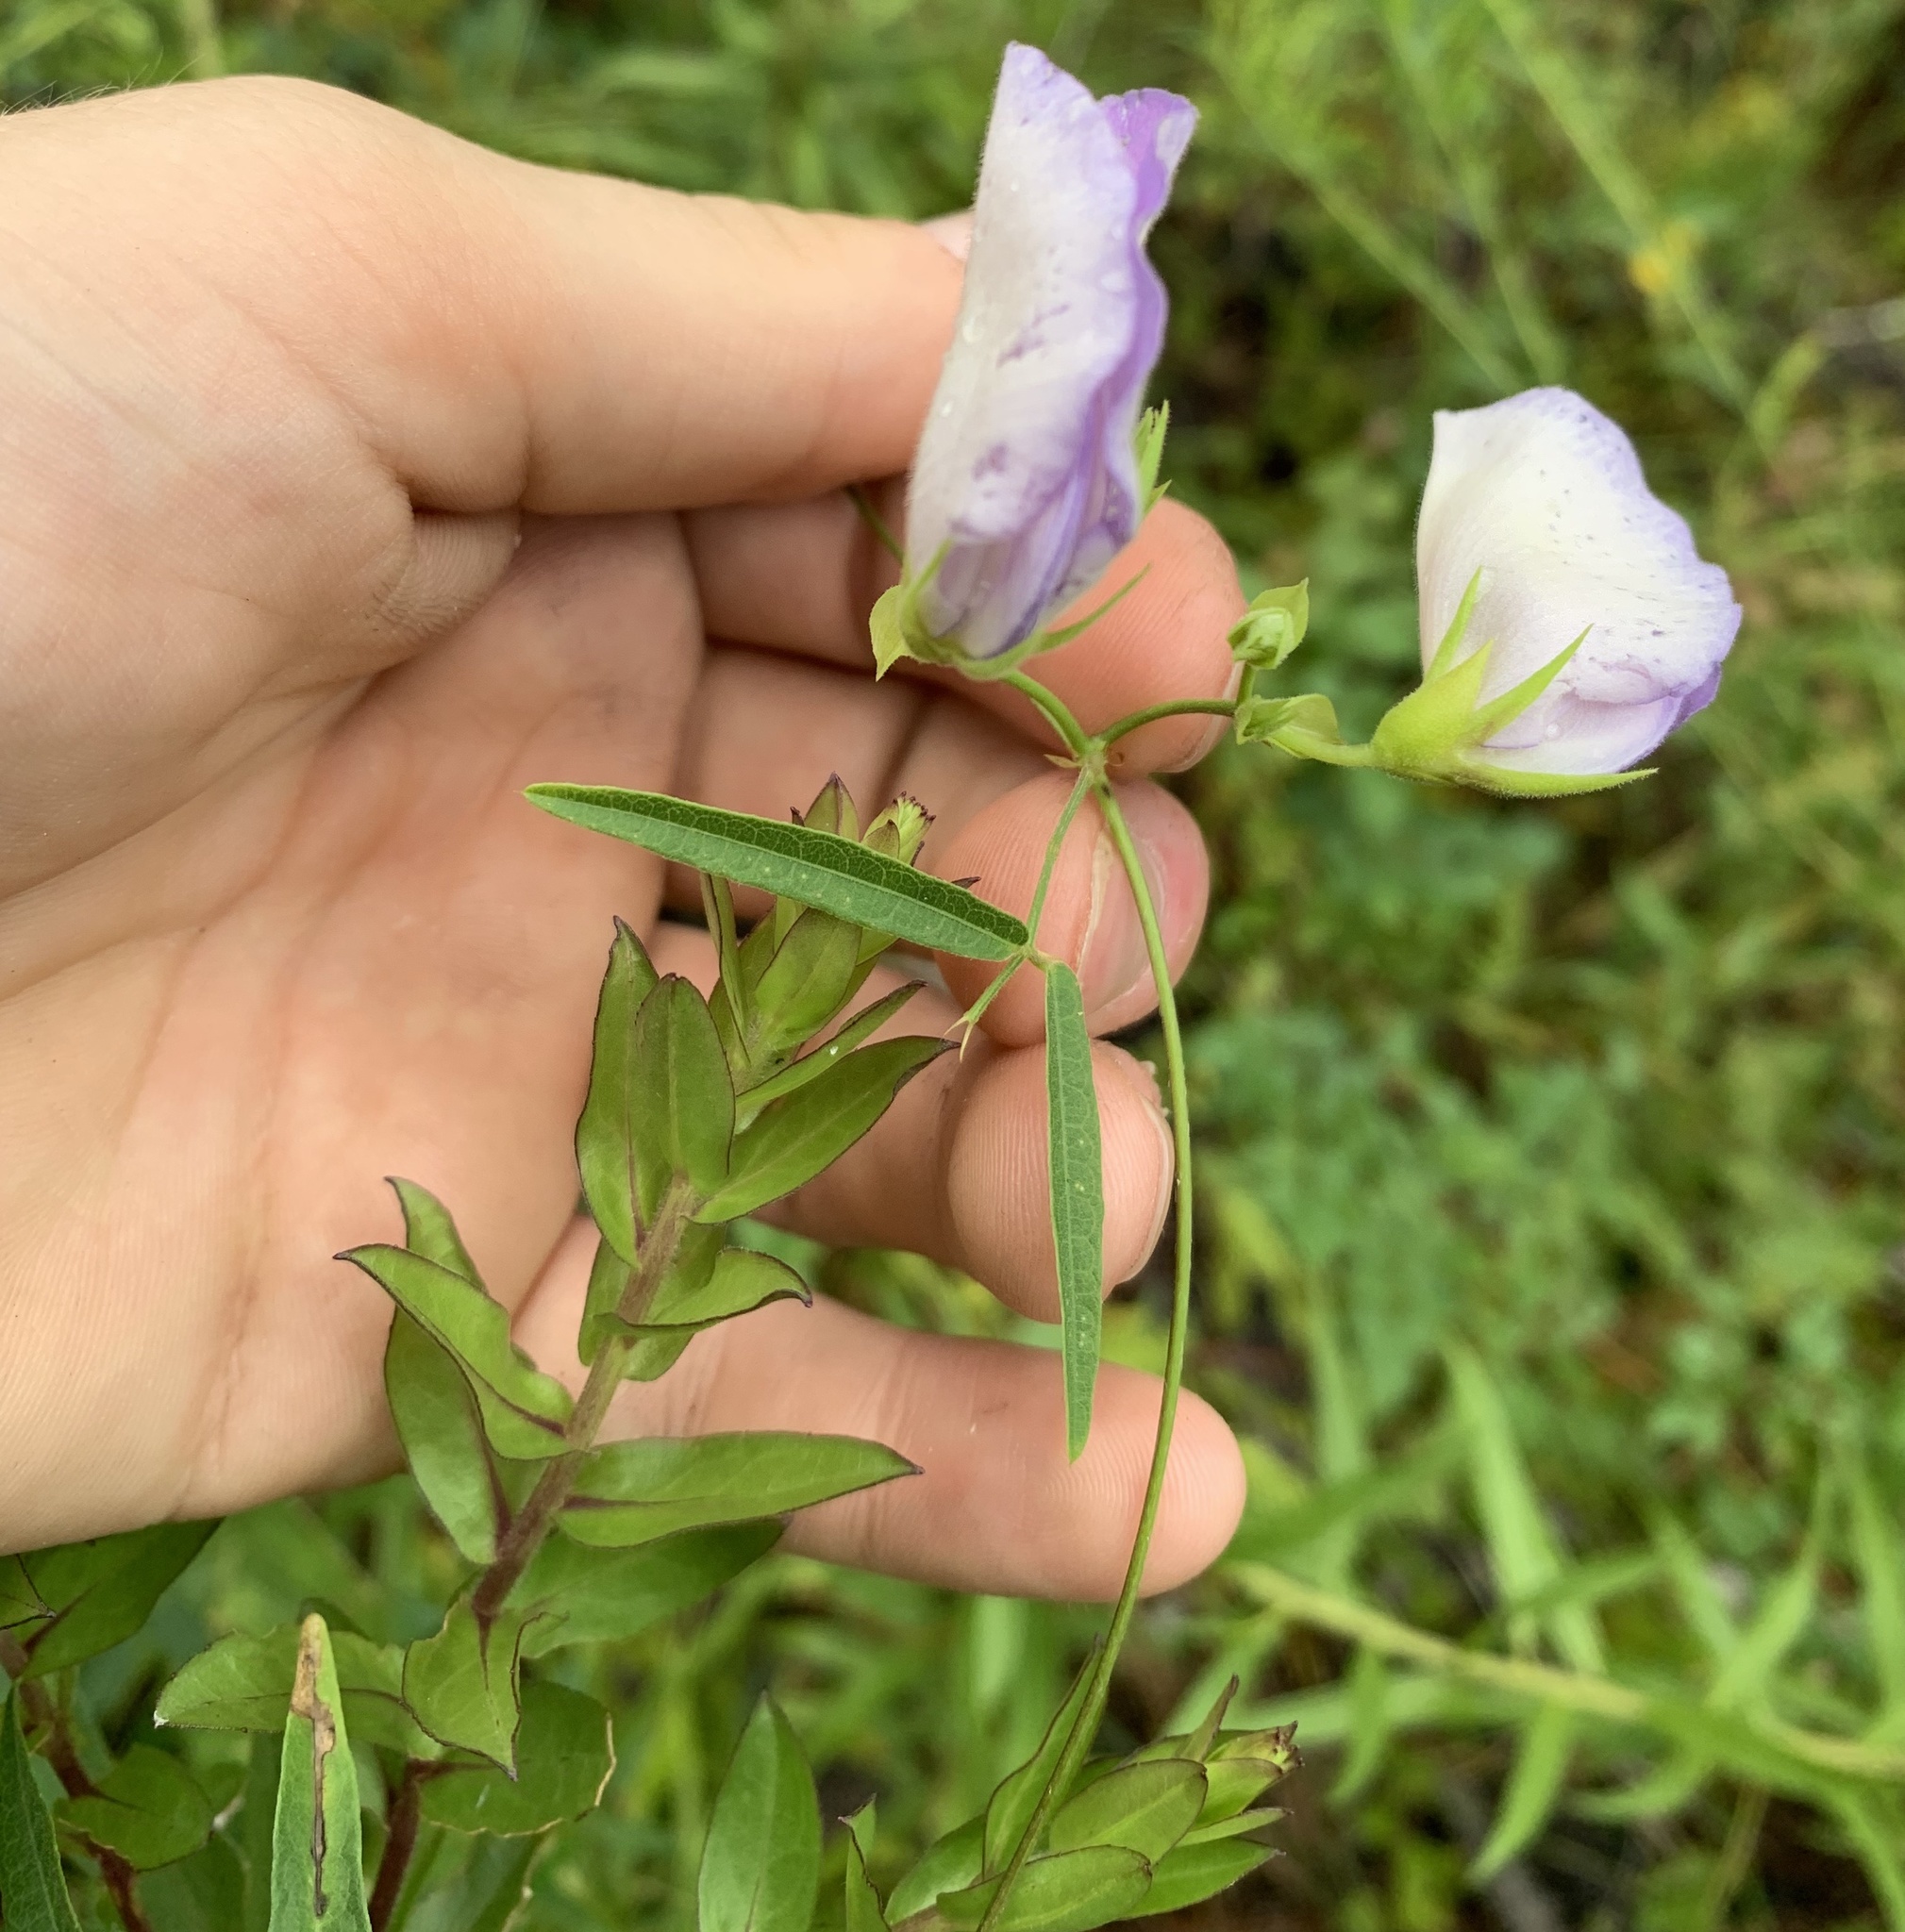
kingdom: Plantae
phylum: Tracheophyta
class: Magnoliopsida
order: Fabales
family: Fabaceae
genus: Centrosema
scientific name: Centrosema virginianum
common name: Butterfly-pea
